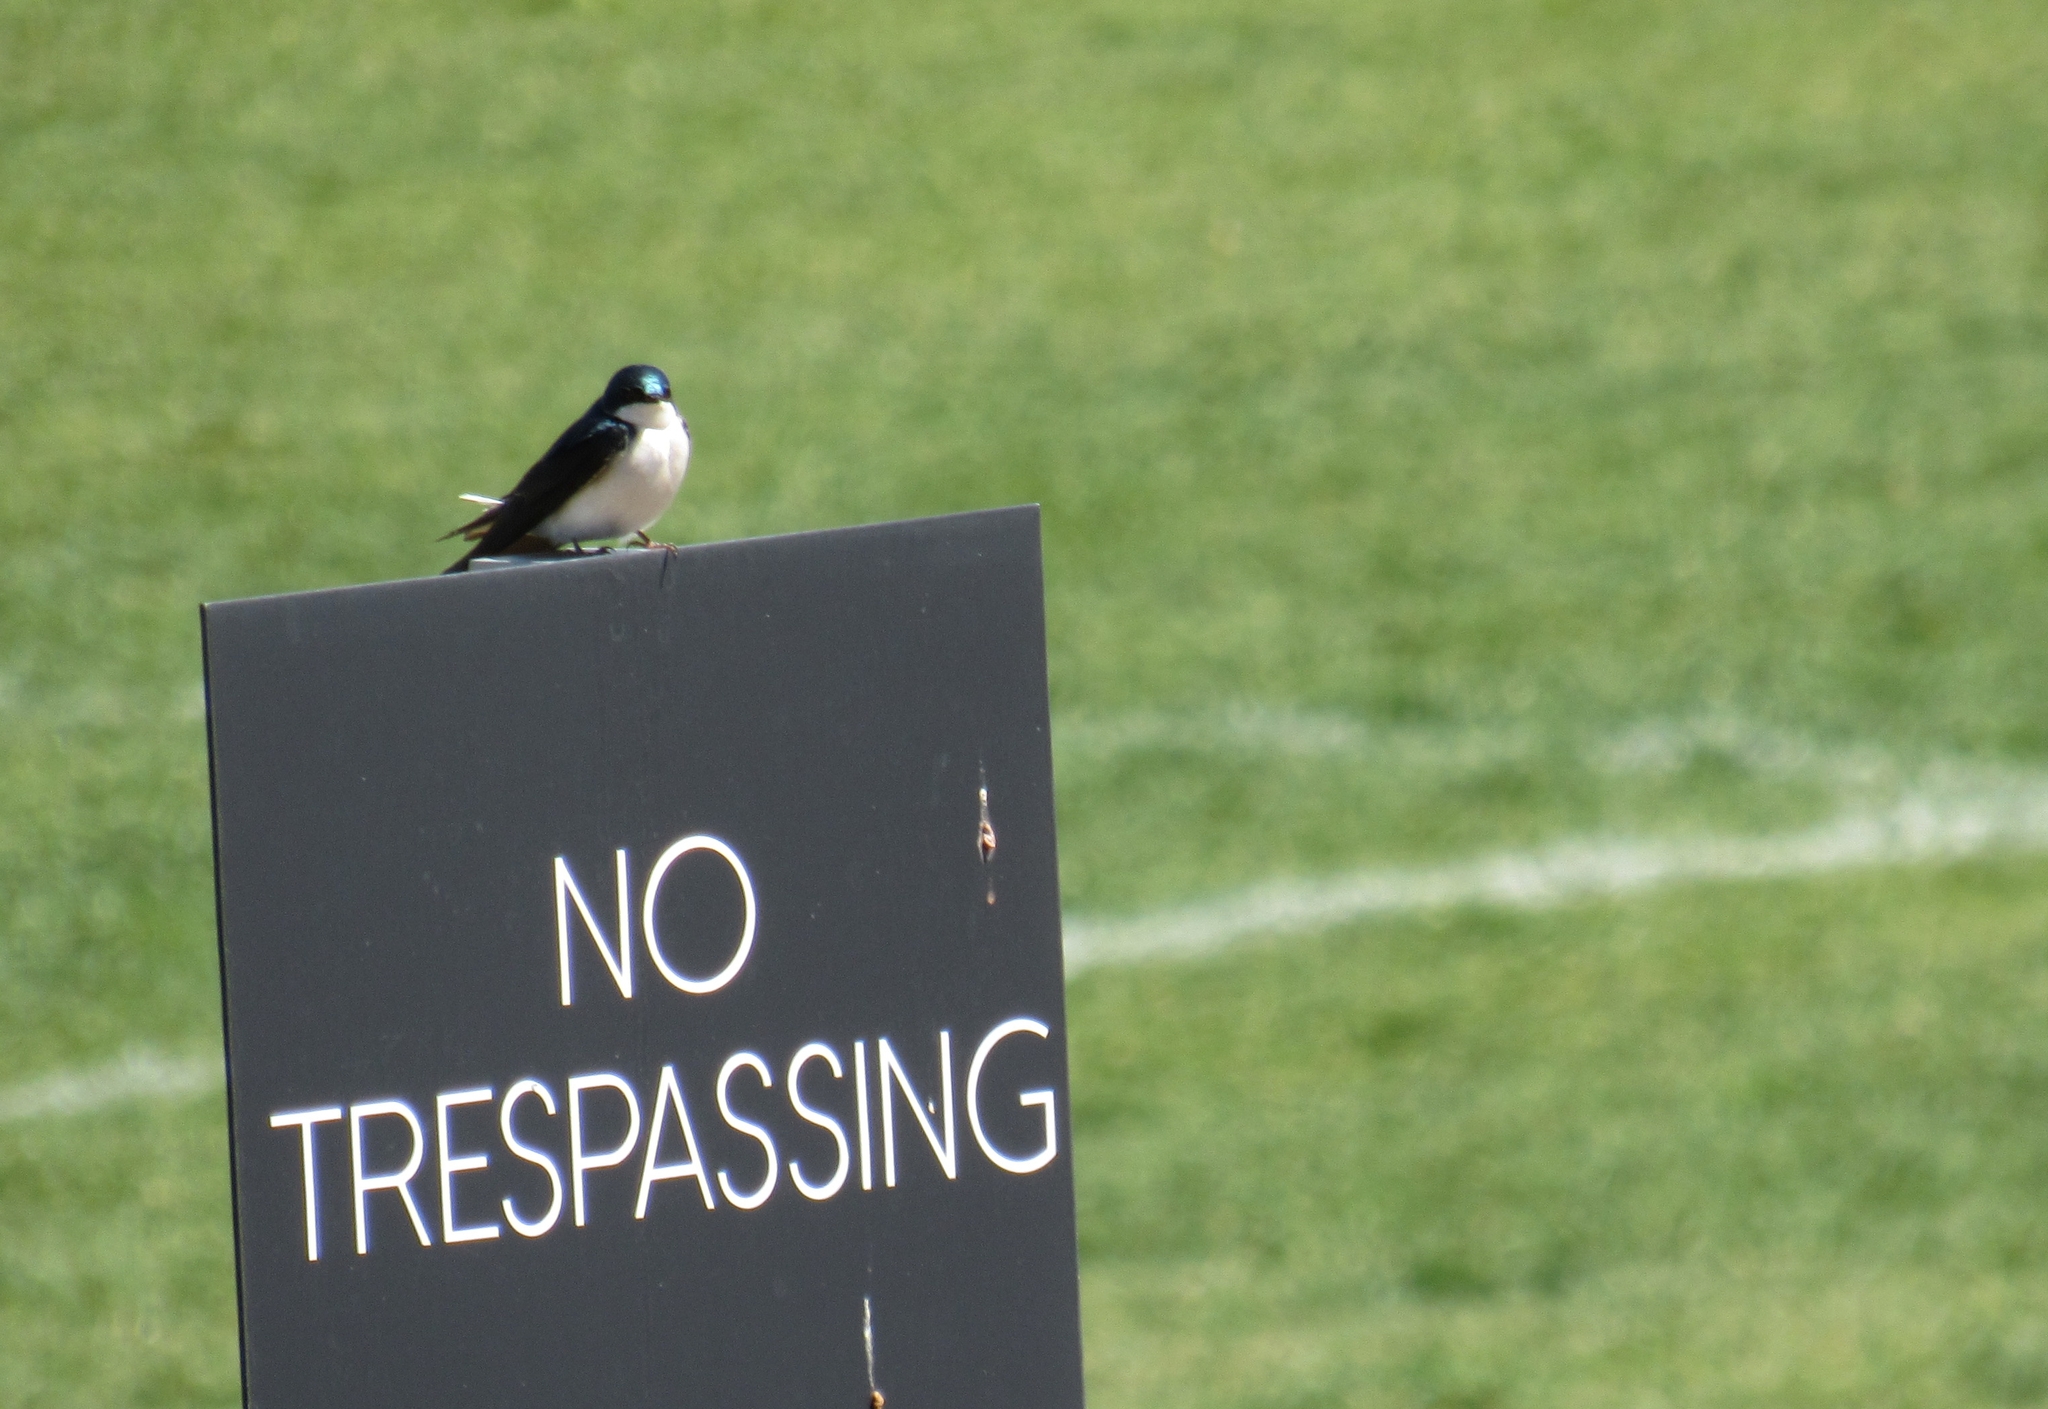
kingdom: Animalia
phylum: Chordata
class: Aves
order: Passeriformes
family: Hirundinidae
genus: Tachycineta
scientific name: Tachycineta bicolor
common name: Tree swallow
